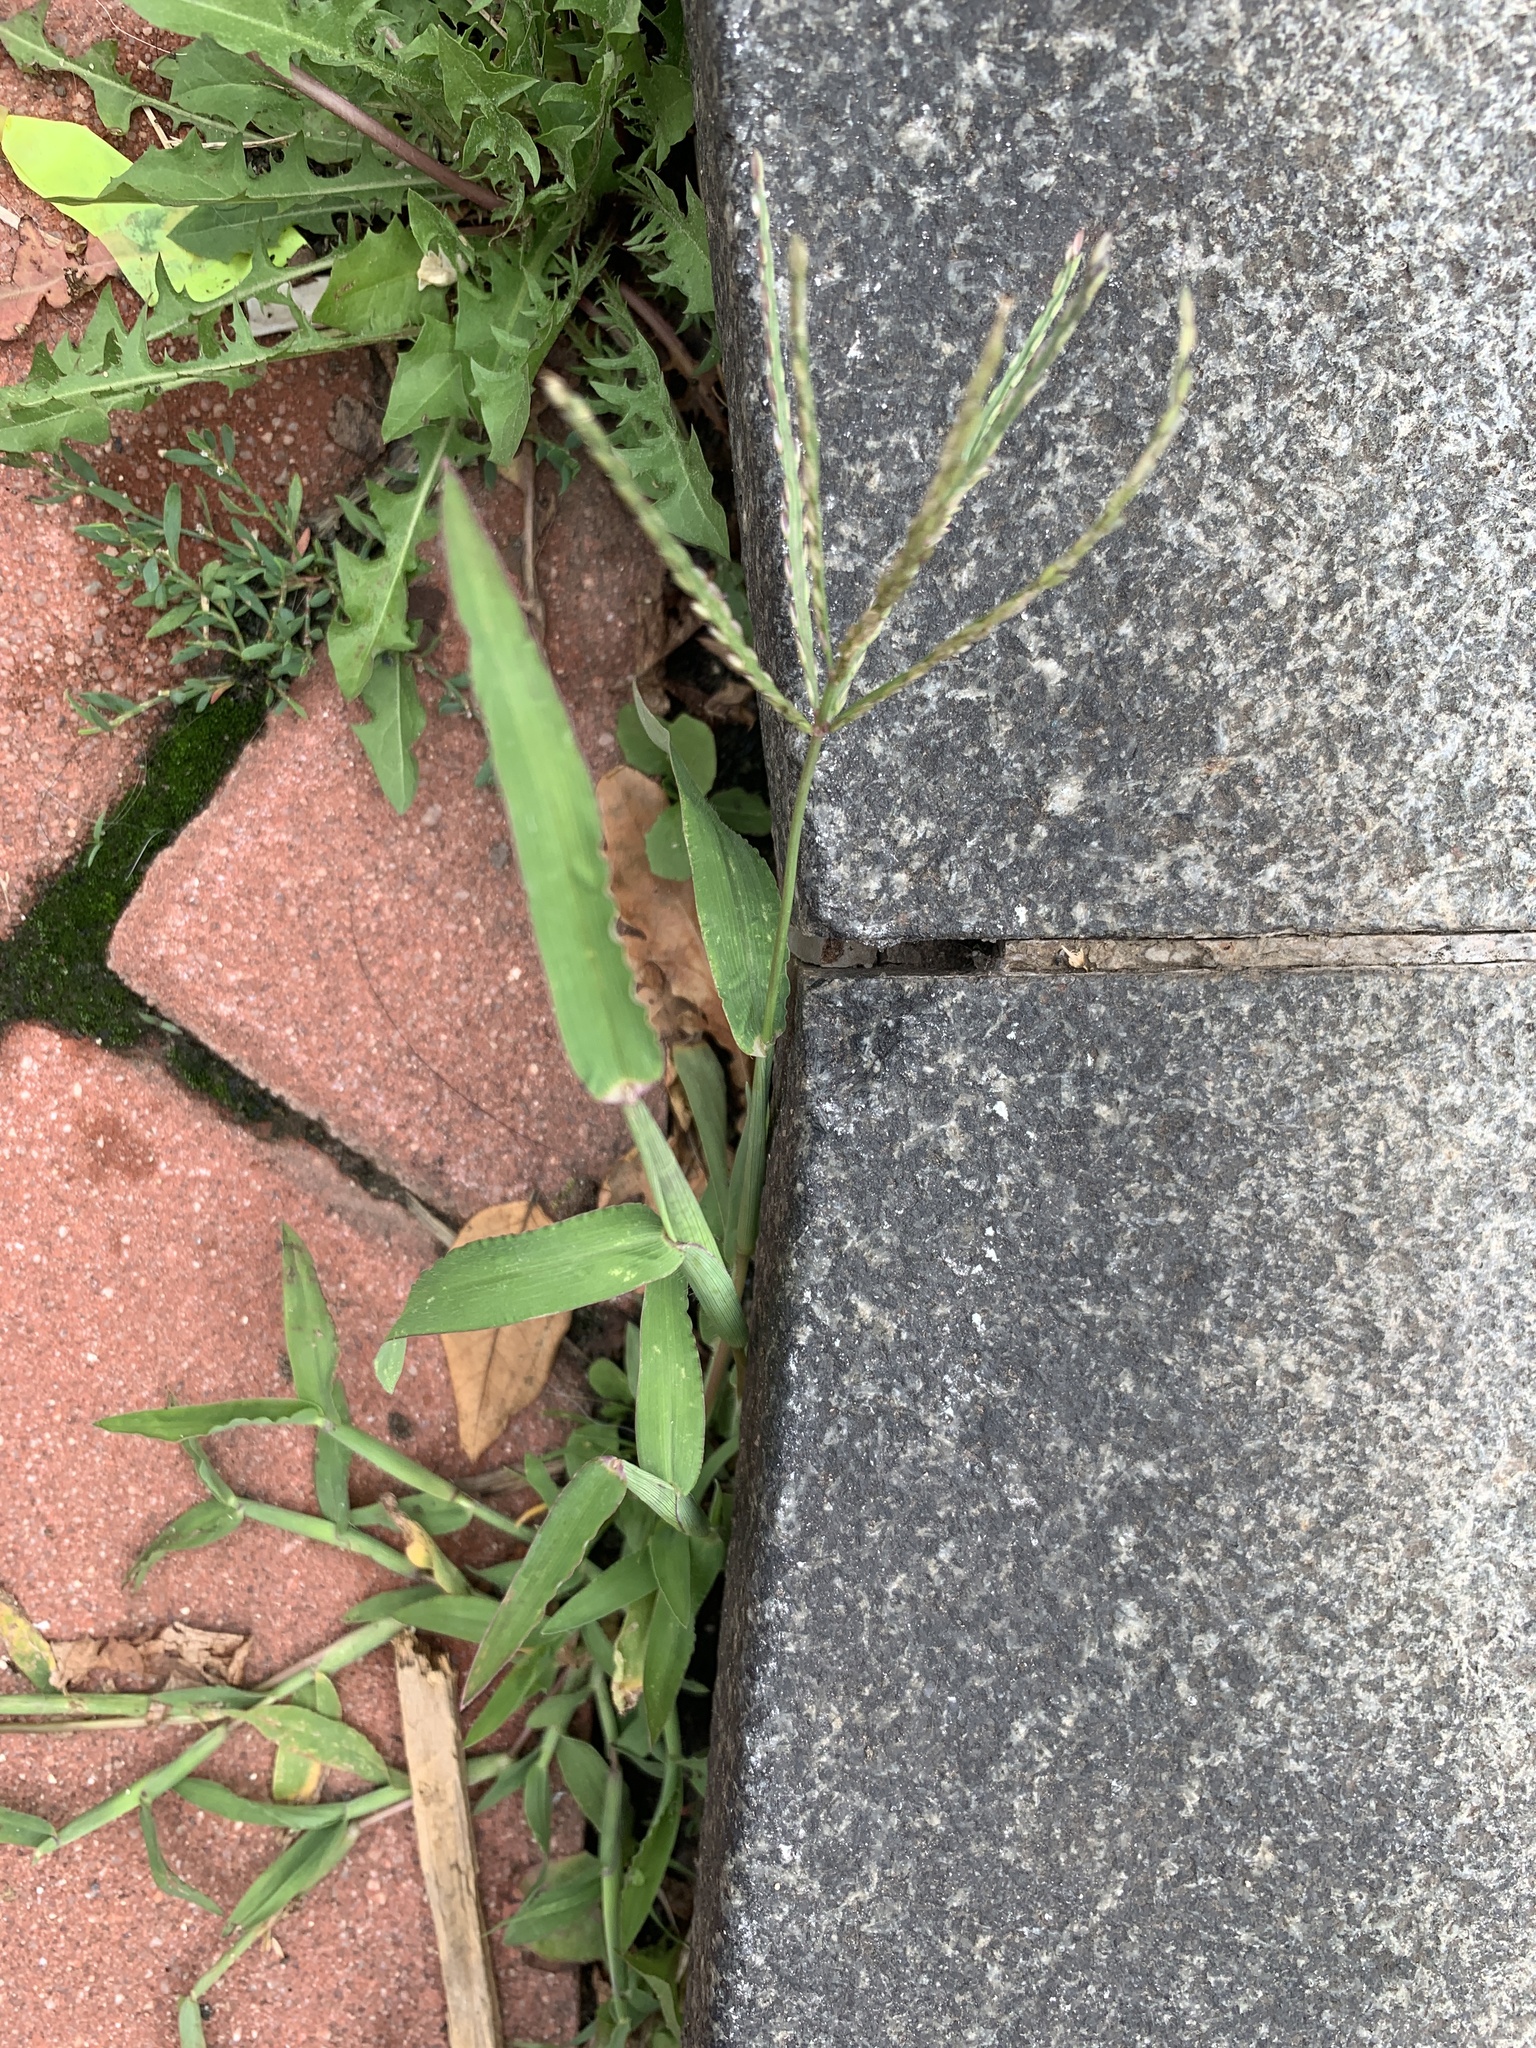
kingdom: Plantae
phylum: Tracheophyta
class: Liliopsida
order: Poales
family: Poaceae
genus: Digitaria
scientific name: Digitaria sanguinalis
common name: Hairy crabgrass
